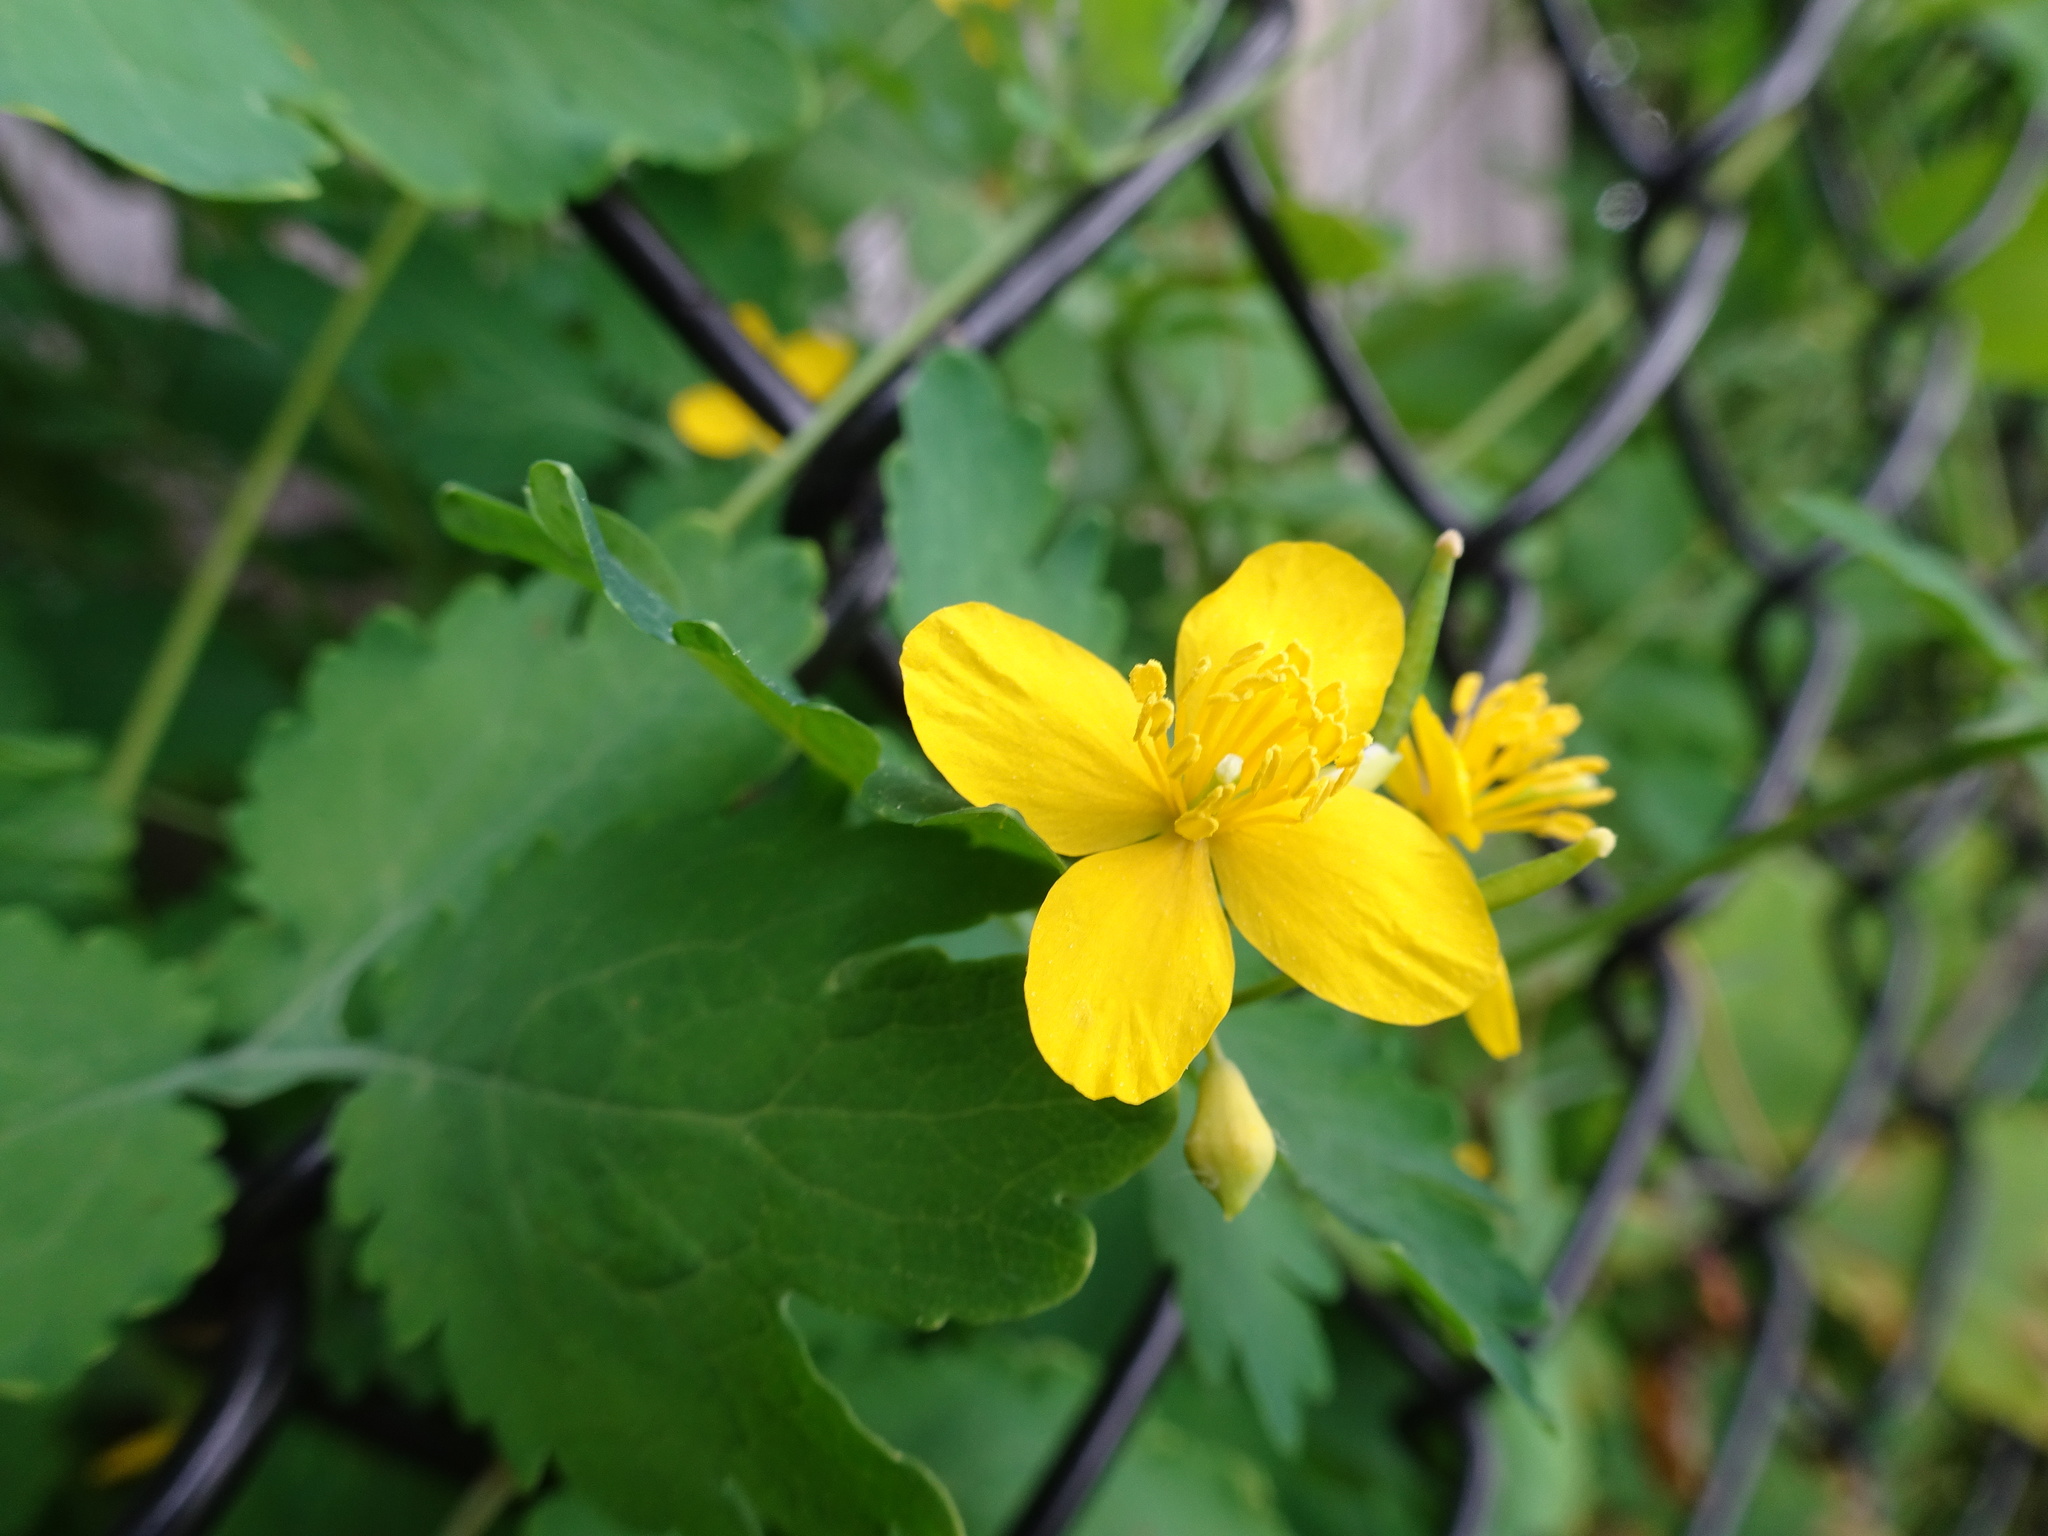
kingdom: Plantae
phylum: Tracheophyta
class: Magnoliopsida
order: Ranunculales
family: Papaveraceae
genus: Chelidonium
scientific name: Chelidonium majus
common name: Greater celandine
